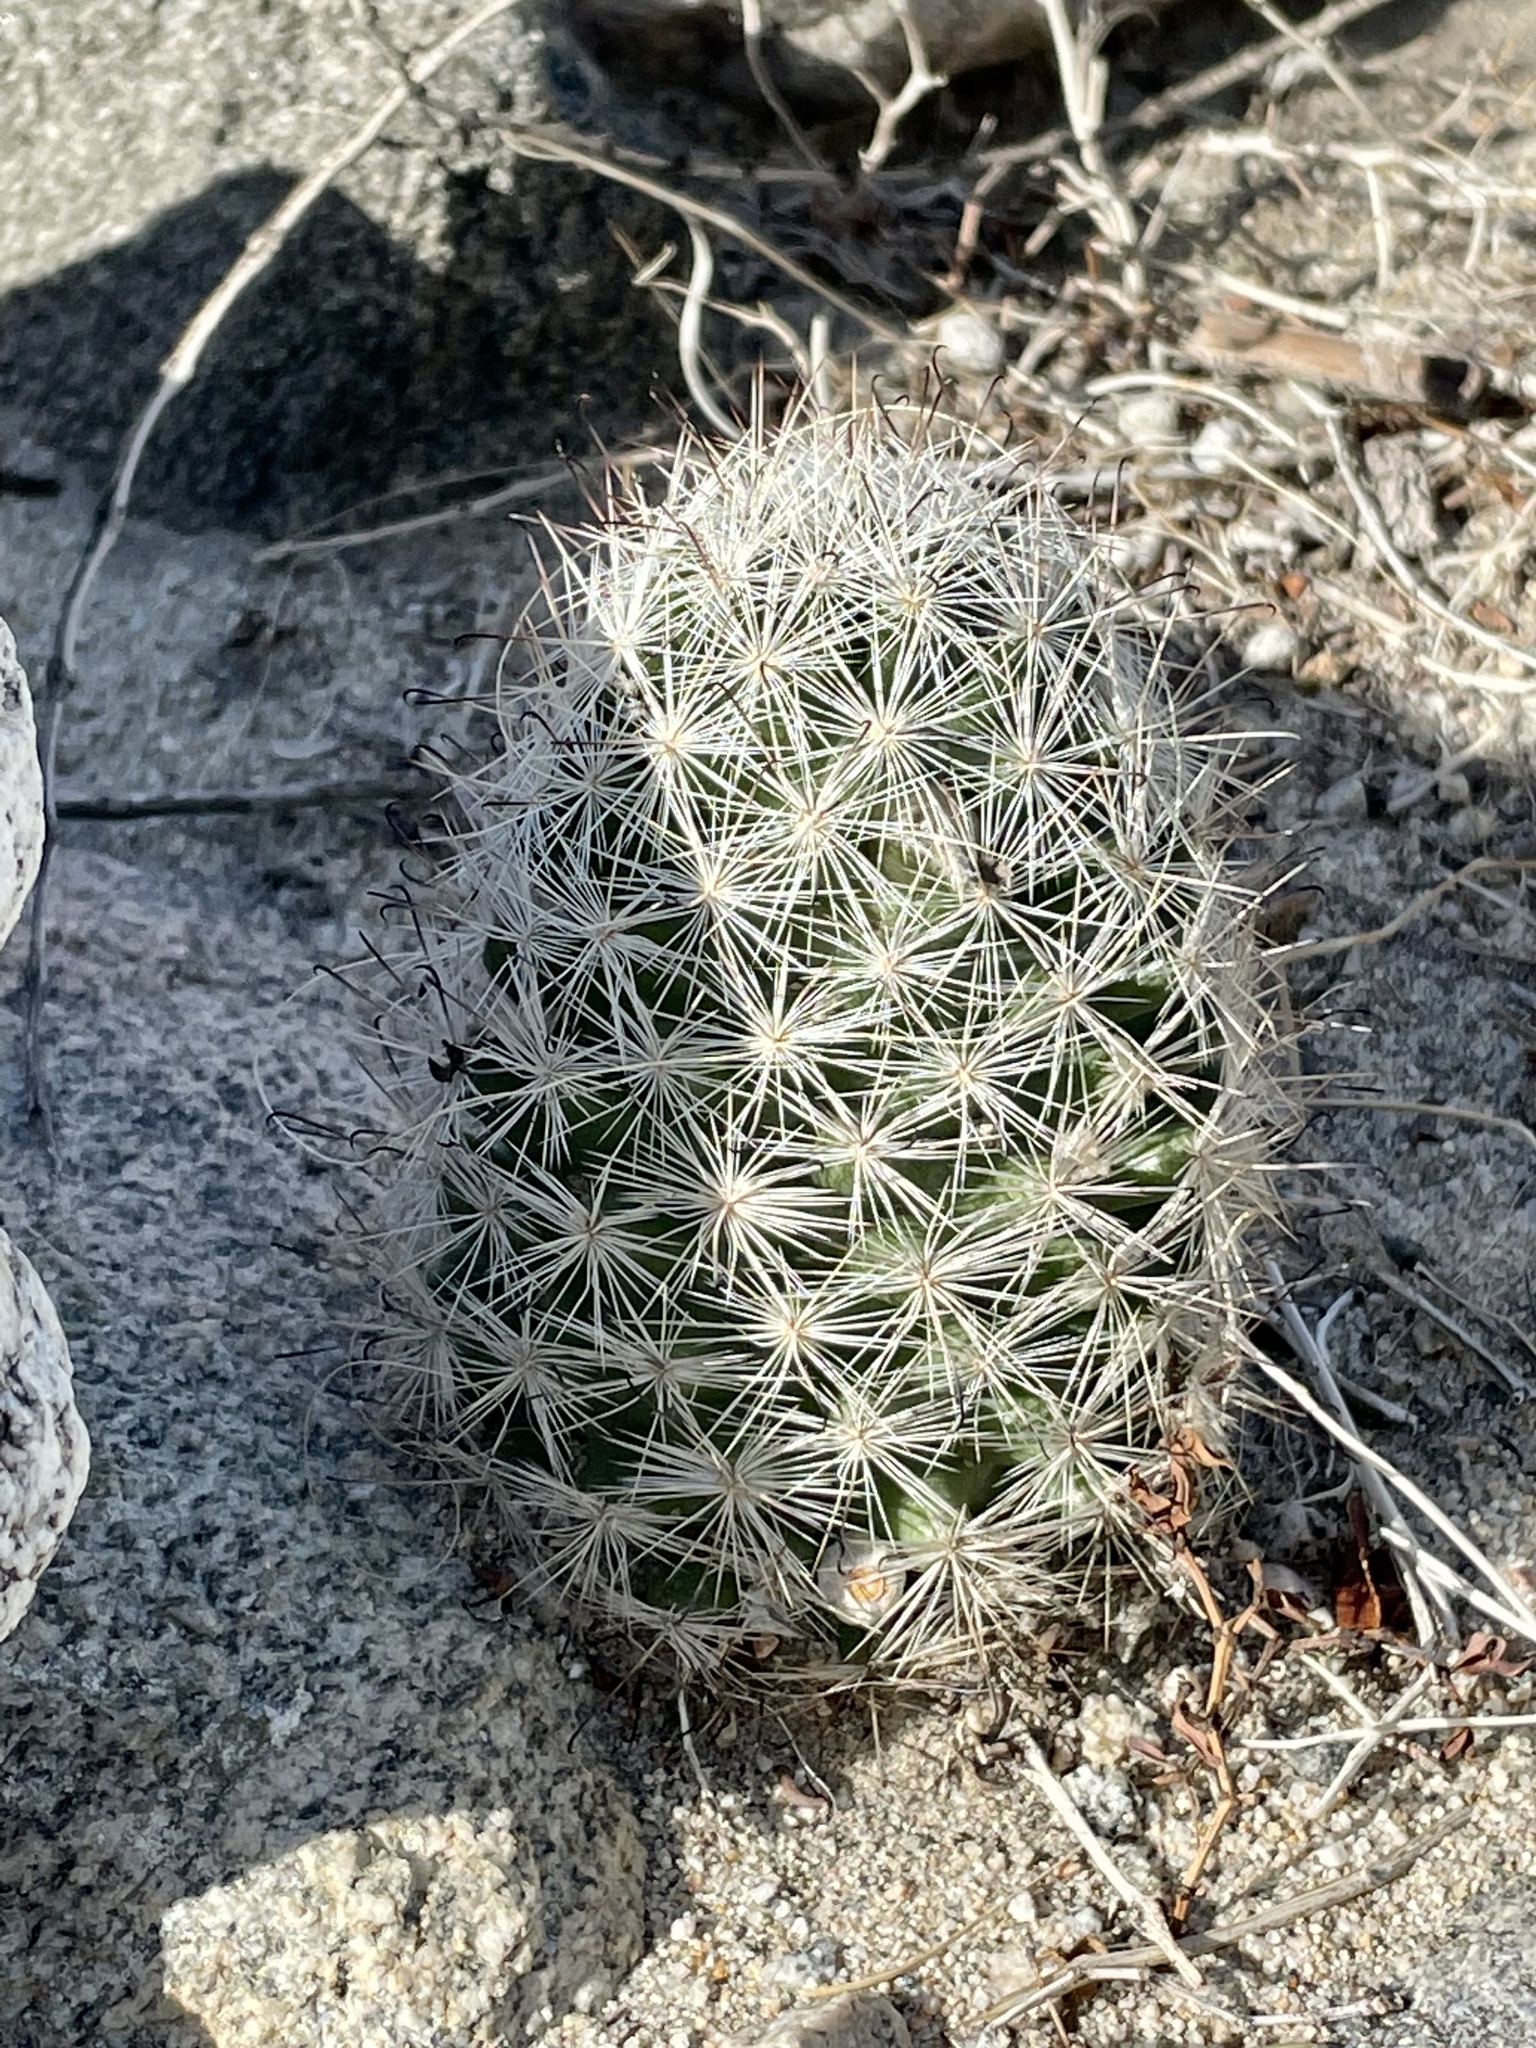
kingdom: Plantae
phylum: Tracheophyta
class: Magnoliopsida
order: Caryophyllales
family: Cactaceae
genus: Cochemiea
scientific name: Cochemiea tetrancistra
